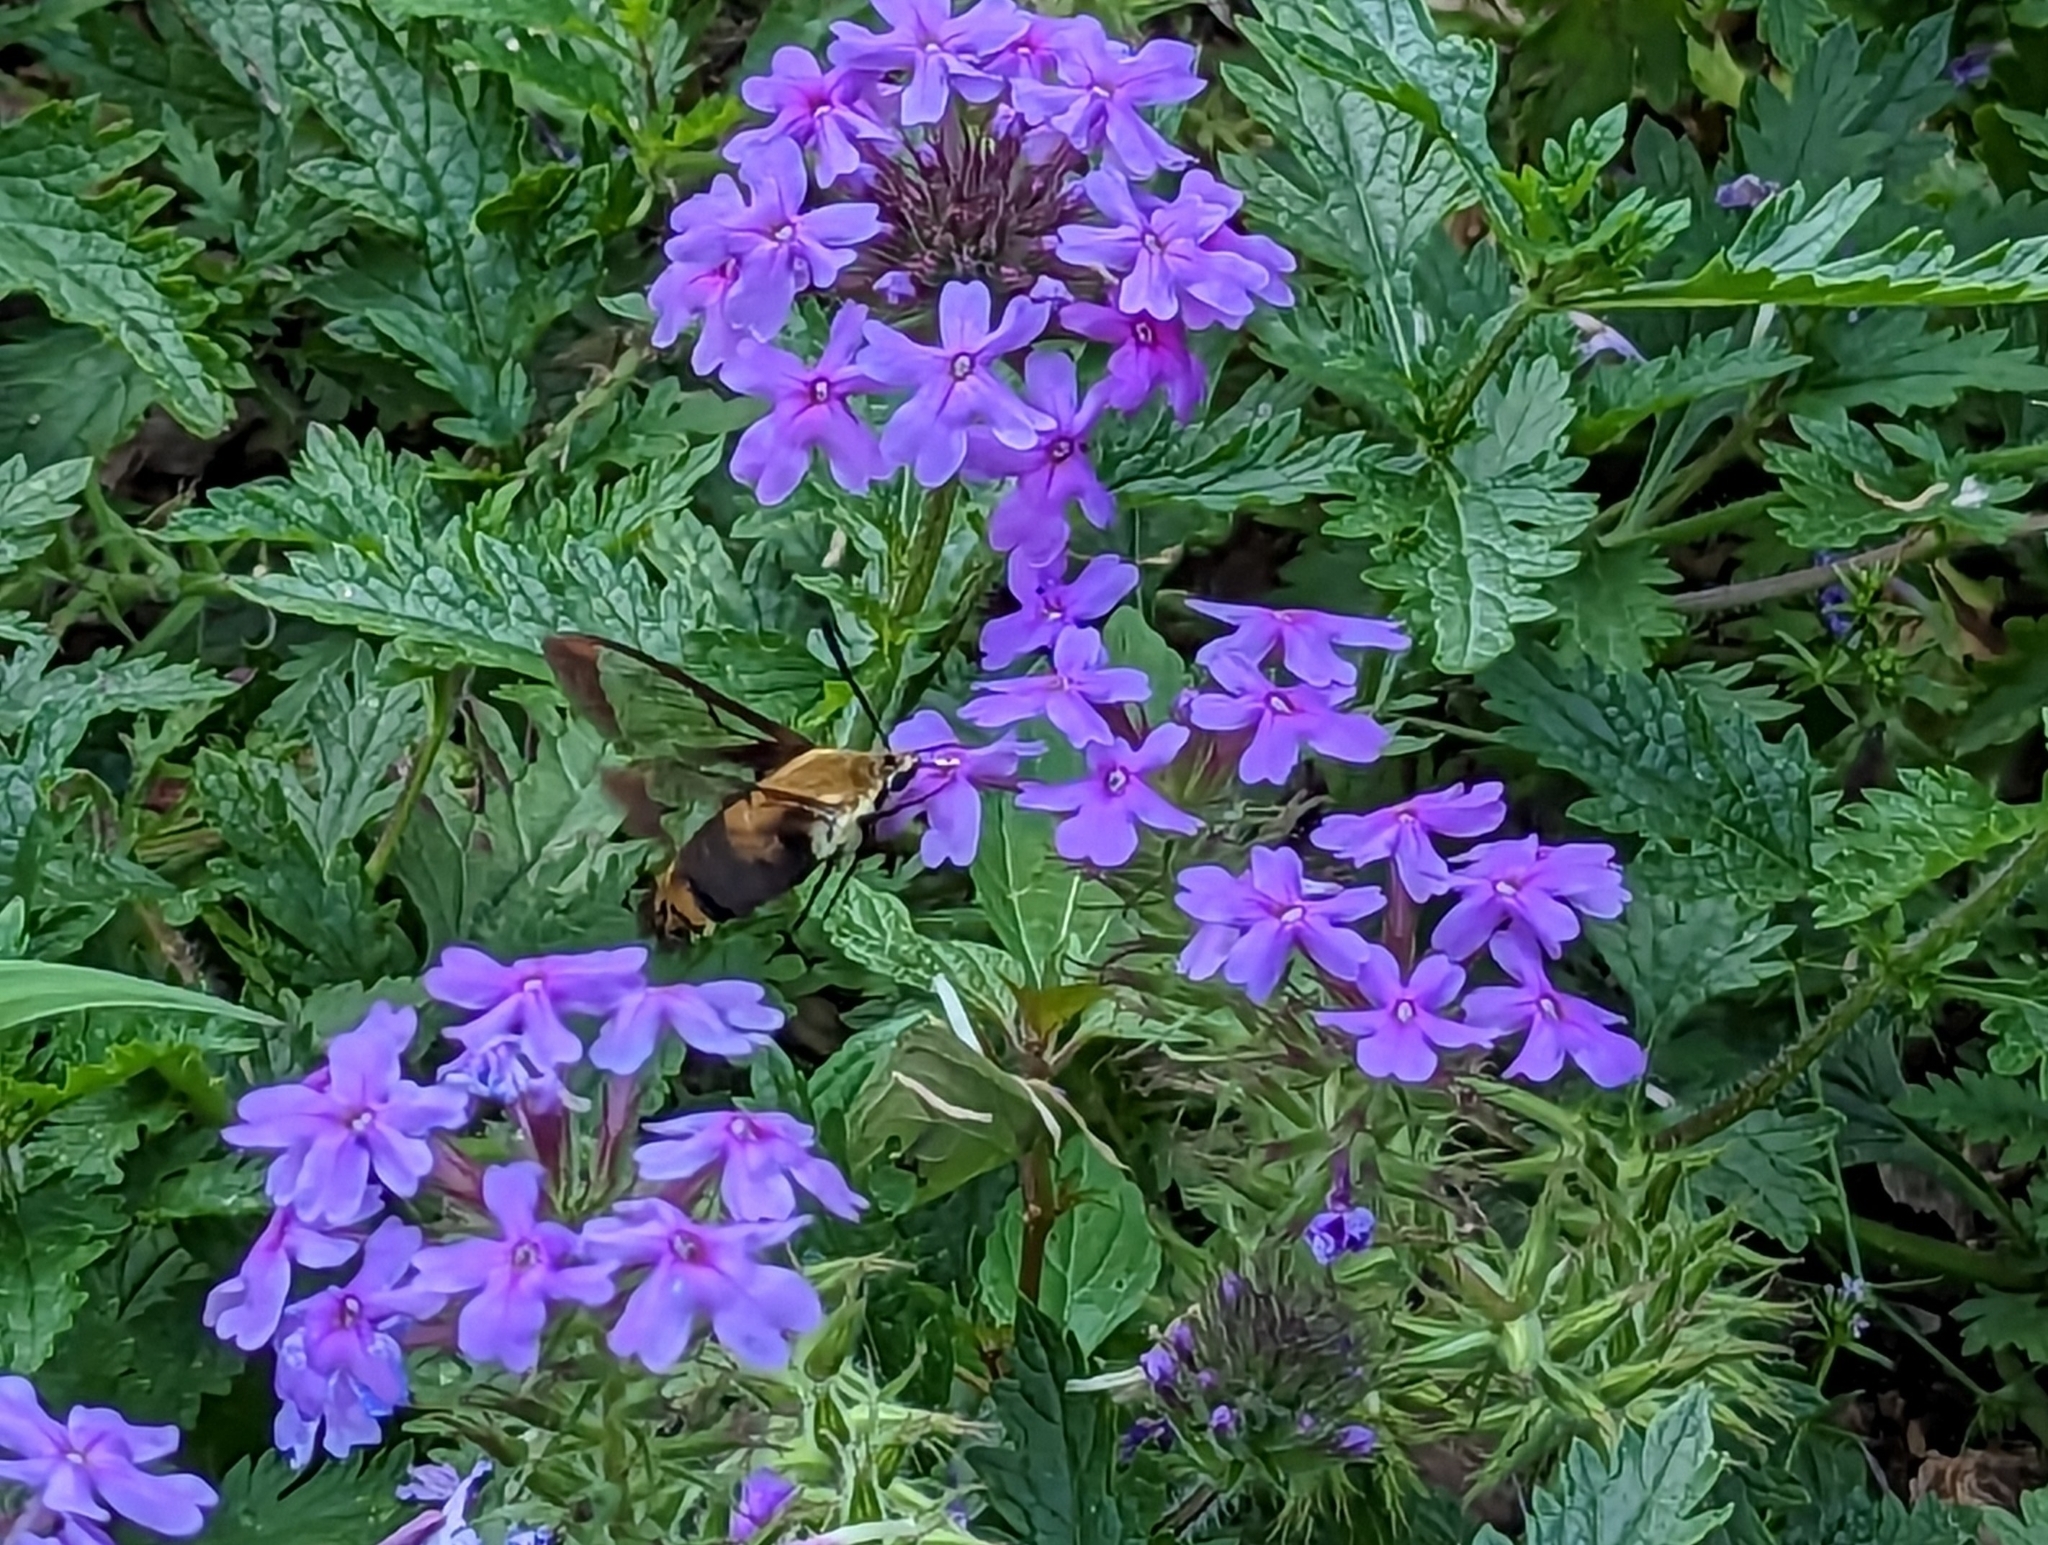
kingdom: Animalia
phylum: Arthropoda
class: Insecta
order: Lepidoptera
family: Sphingidae
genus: Hemaris
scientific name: Hemaris diffinis
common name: Bumblebee moth
